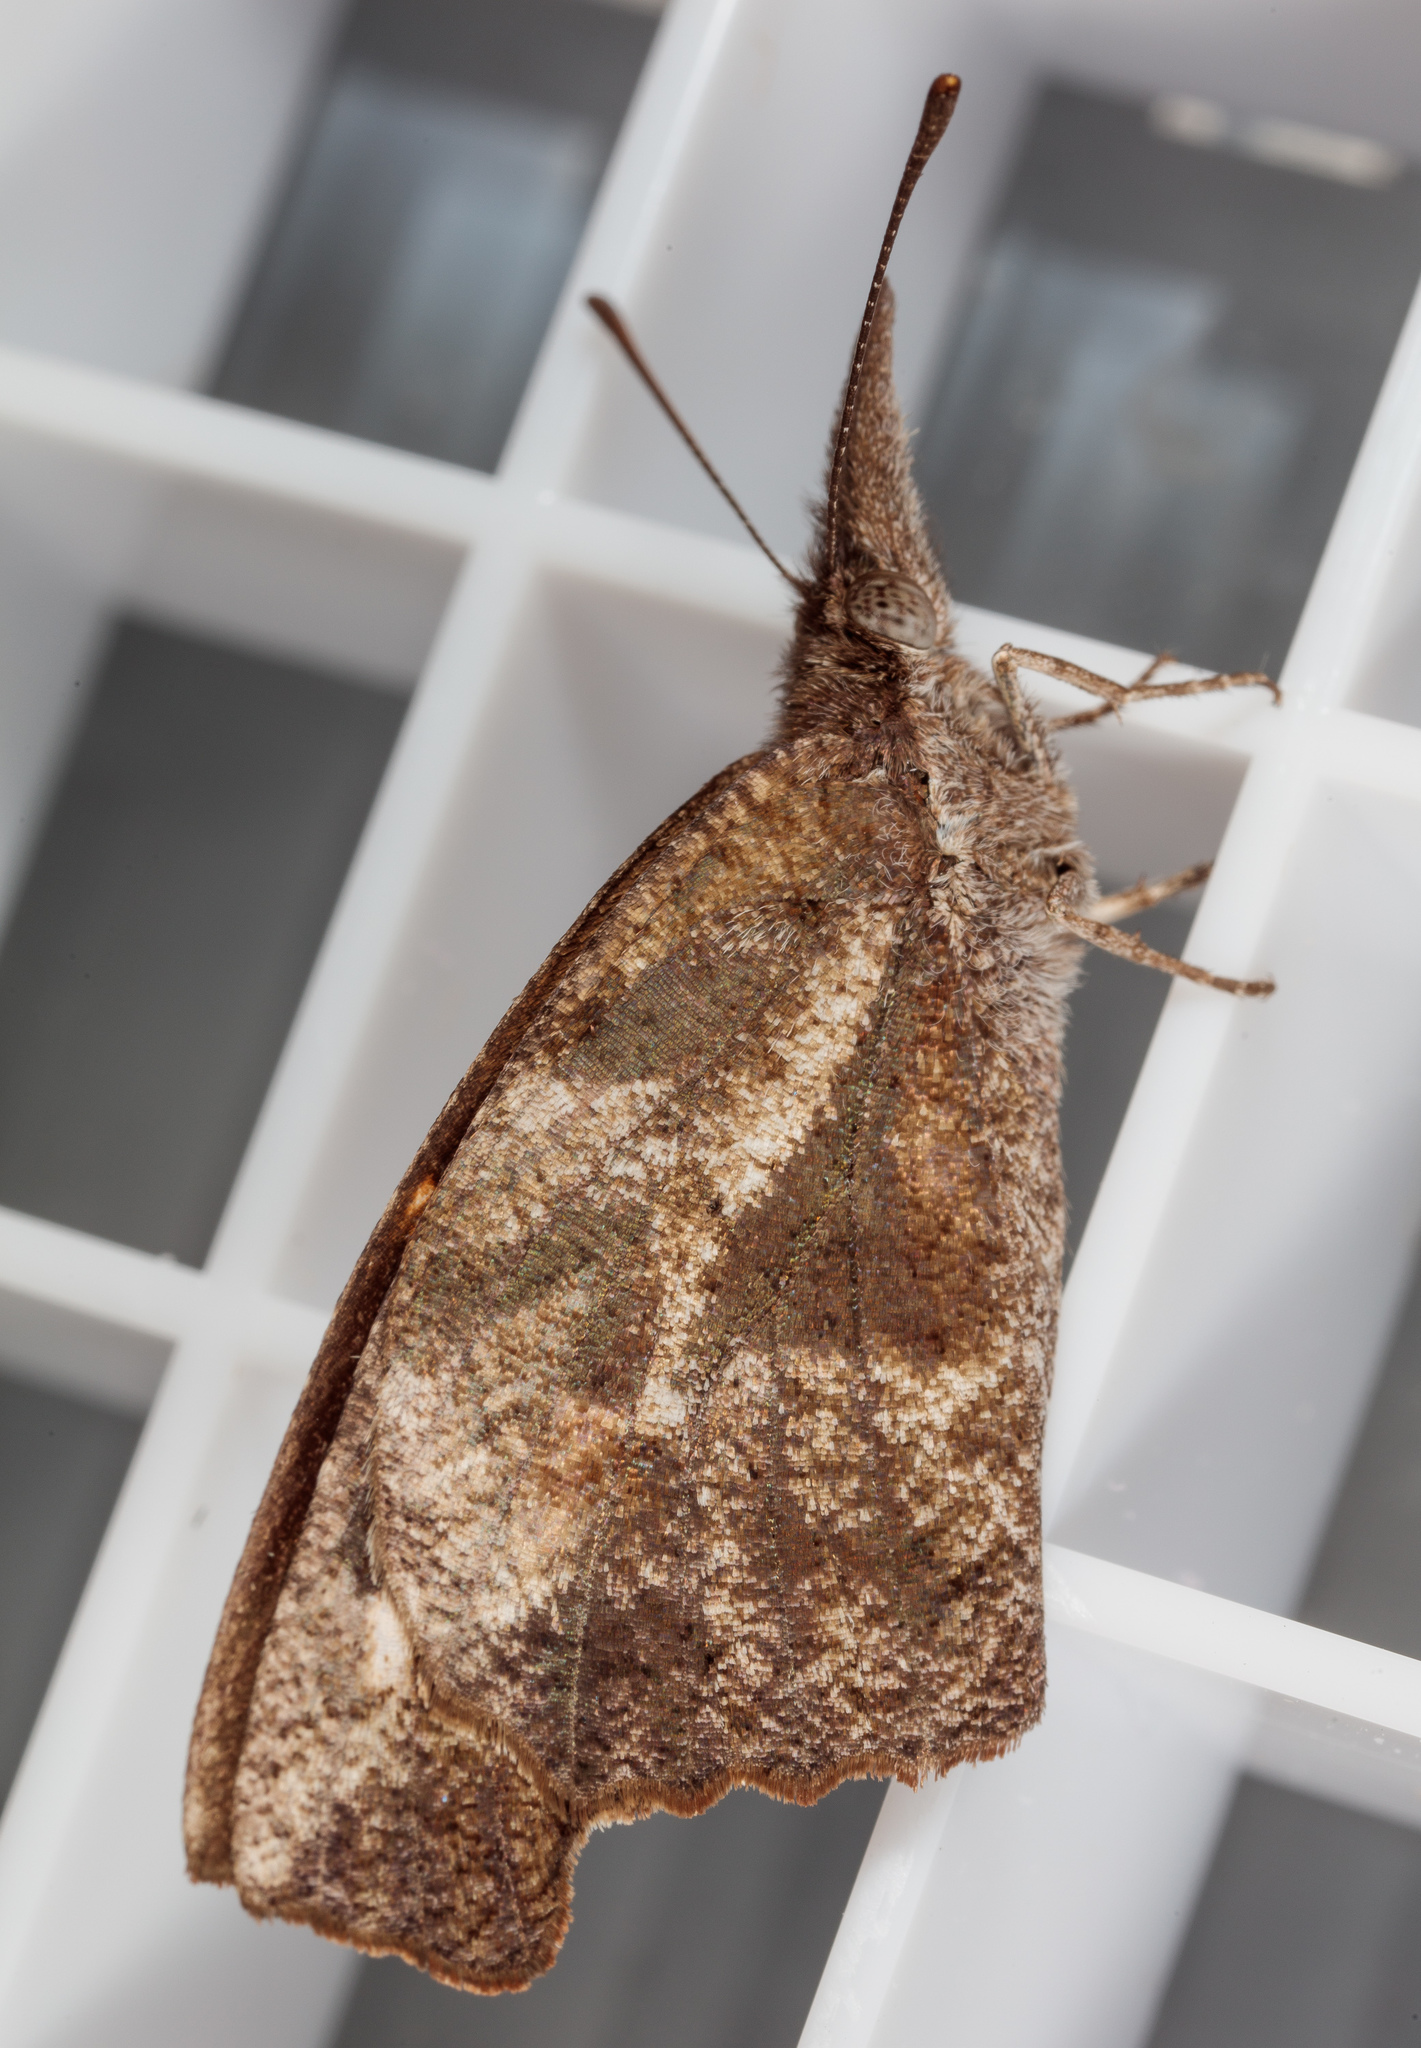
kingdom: Animalia
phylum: Arthropoda
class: Insecta
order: Lepidoptera
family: Nymphalidae
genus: Libytheana
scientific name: Libytheana carinenta
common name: American snout
